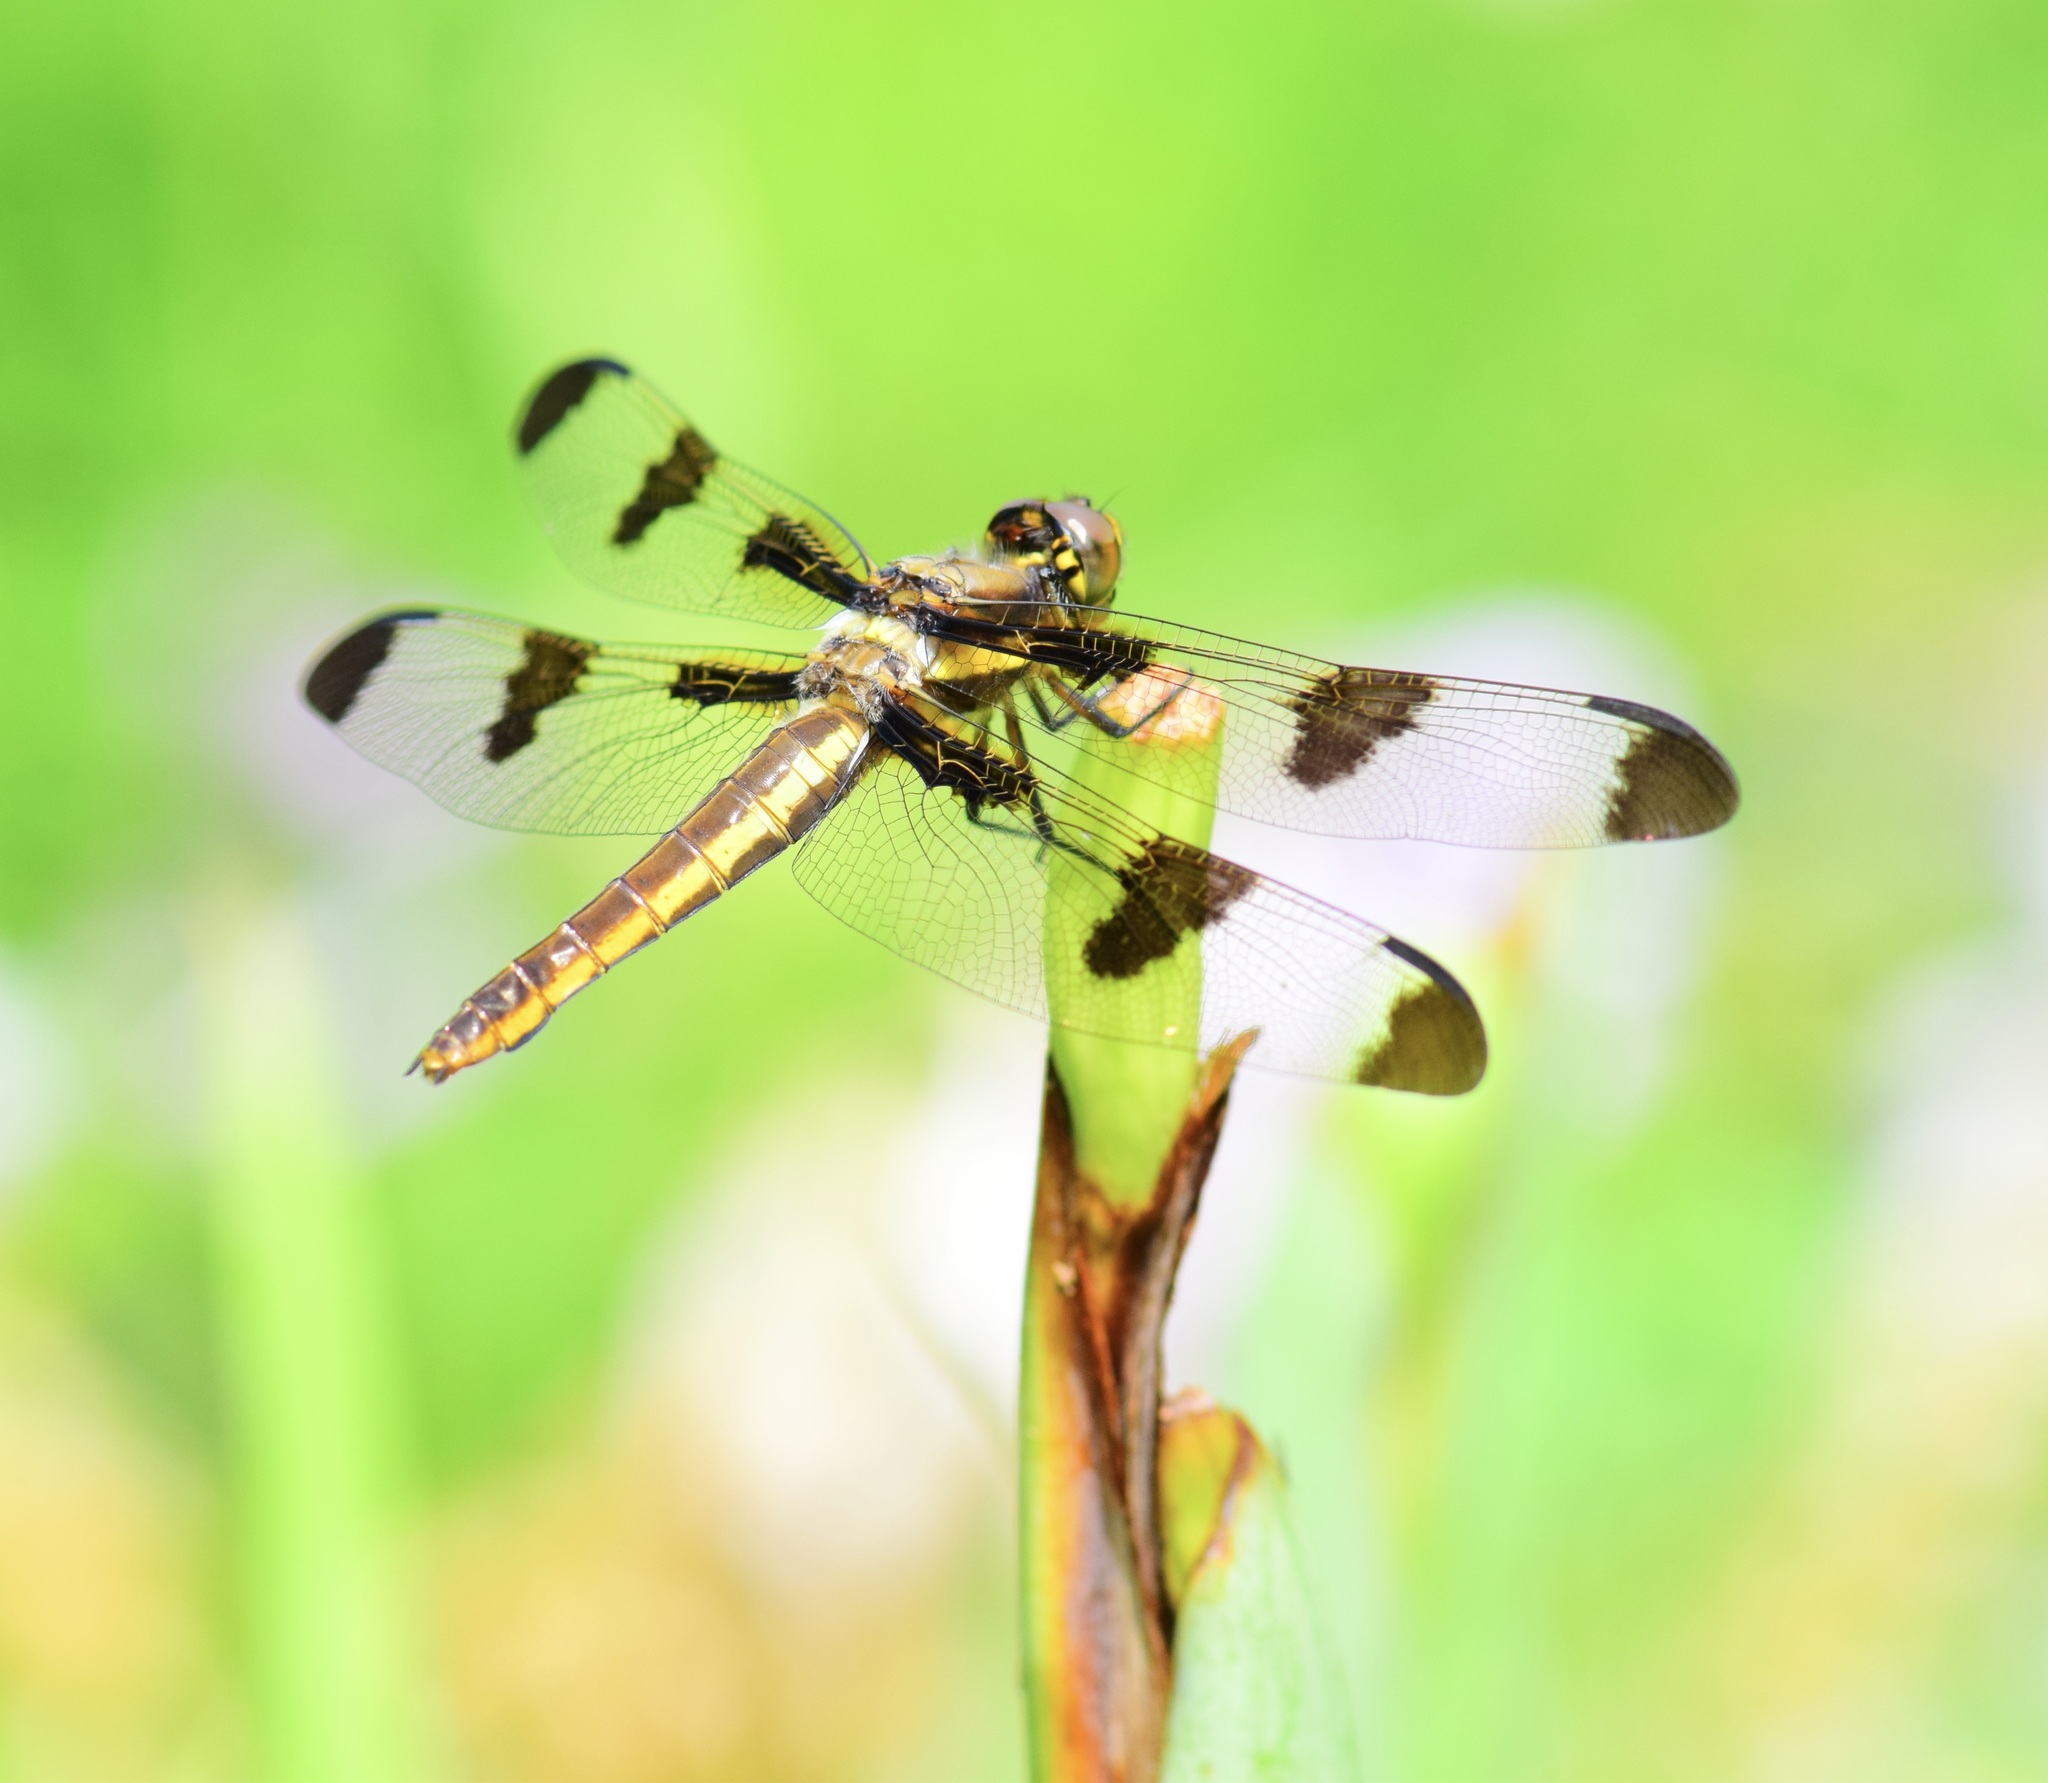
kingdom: Animalia
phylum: Arthropoda
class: Insecta
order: Odonata
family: Libellulidae
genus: Libellula
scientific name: Libellula pulchella
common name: Twelve-spotted skimmer
